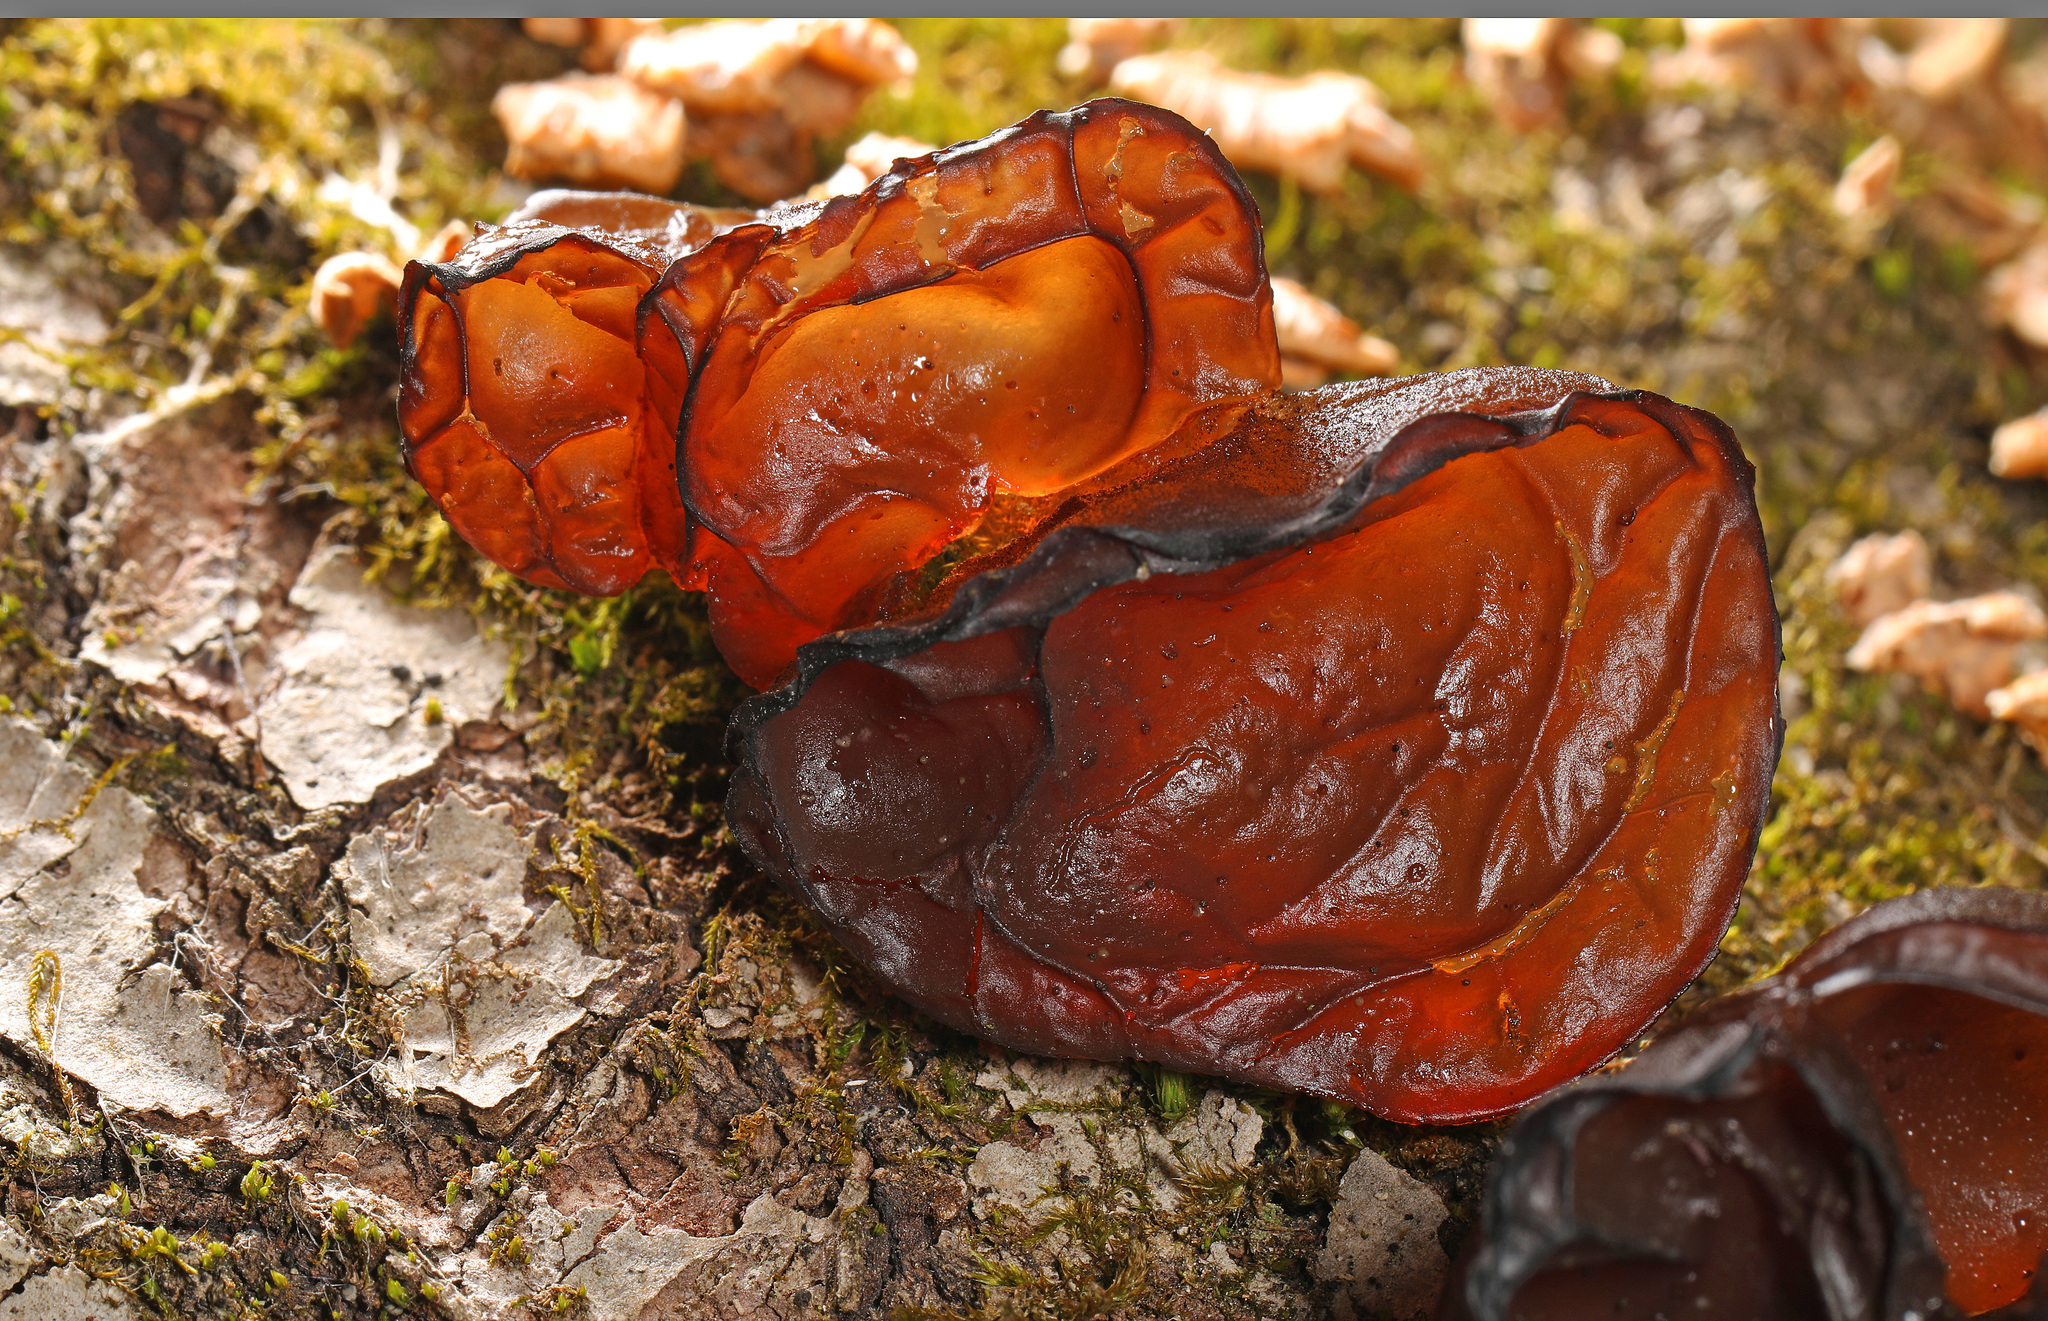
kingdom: Fungi
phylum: Basidiomycota
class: Agaricomycetes
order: Auriculariales
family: Auriculariaceae
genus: Exidia
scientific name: Exidia recisa
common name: Amber jelly
